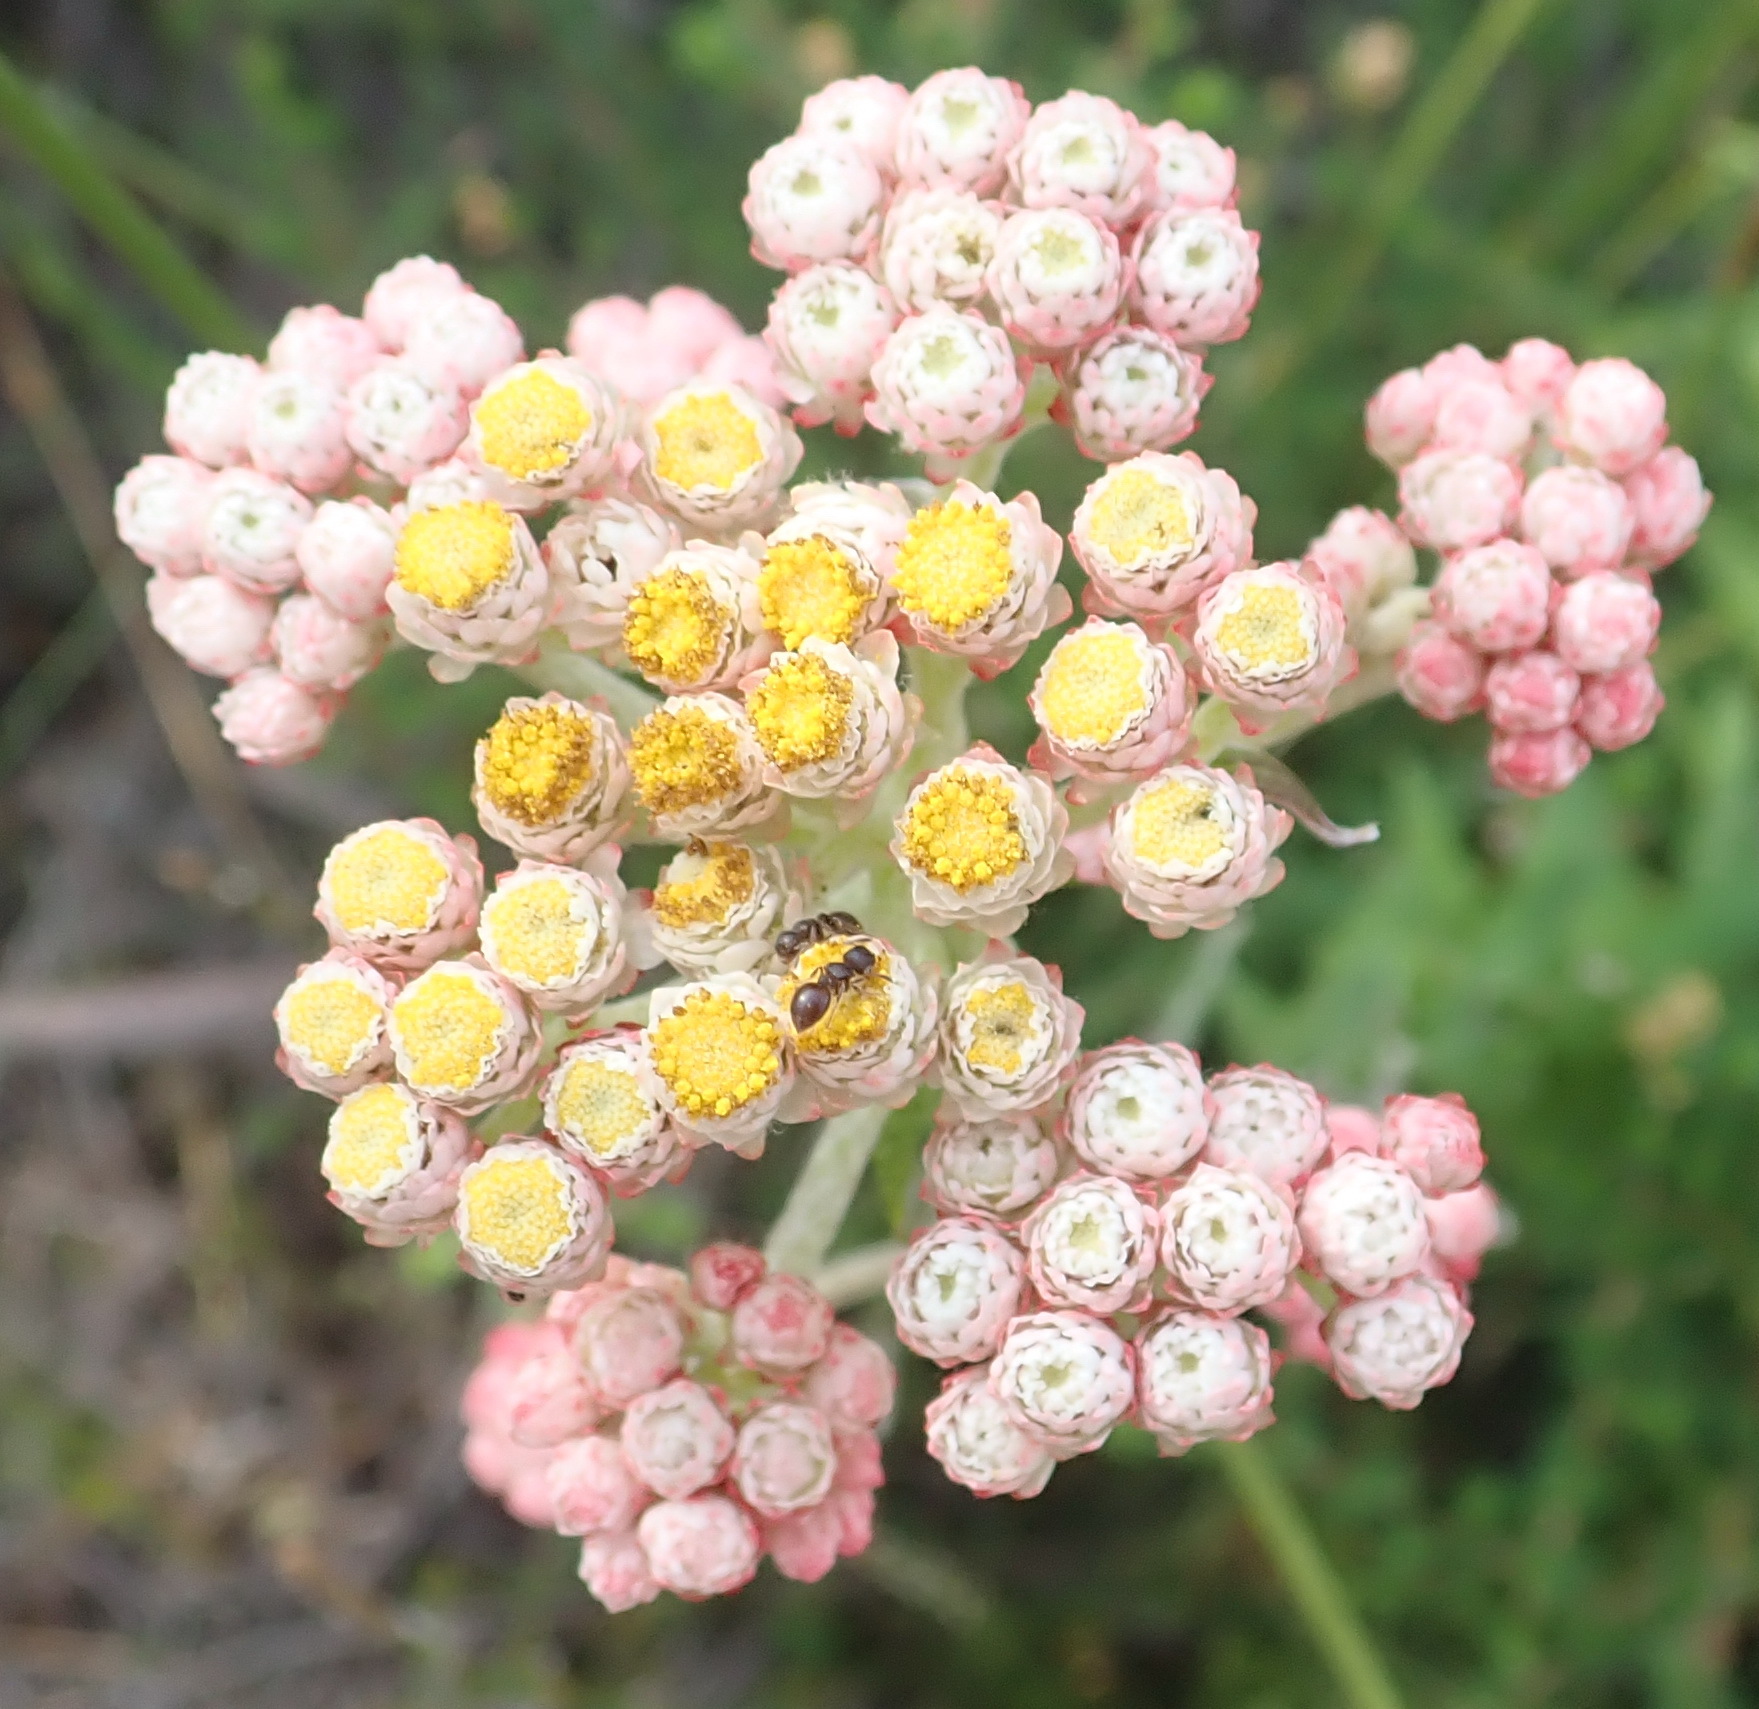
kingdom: Plantae
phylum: Tracheophyta
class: Magnoliopsida
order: Asterales
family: Asteraceae
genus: Helichrysum
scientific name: Helichrysum felinum
